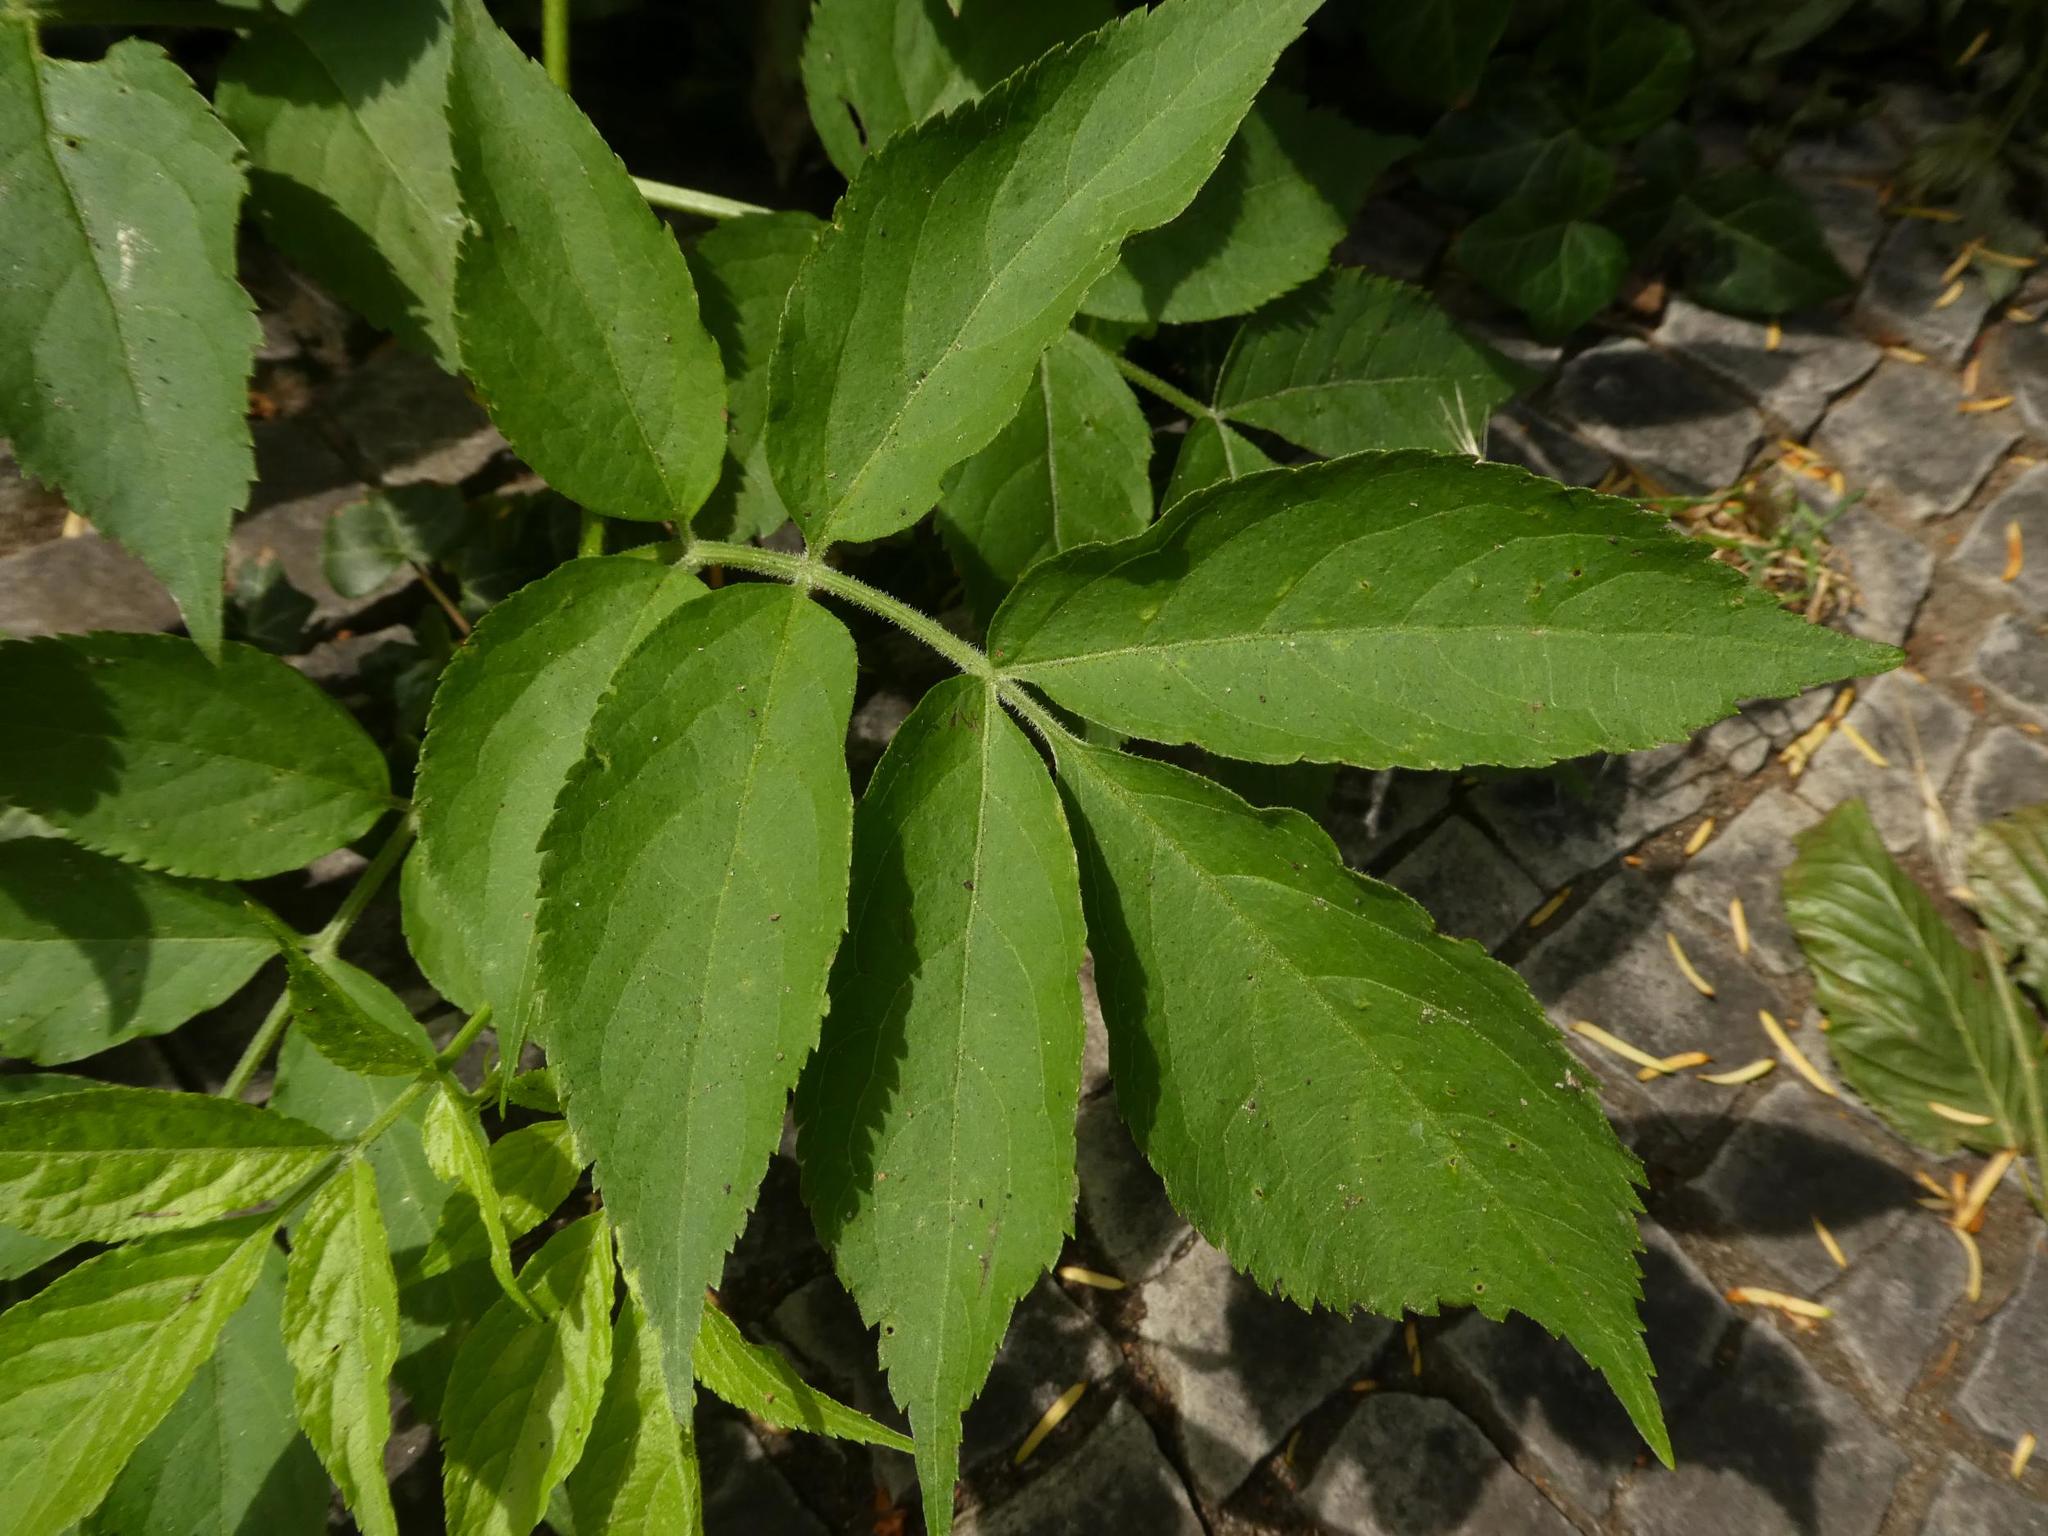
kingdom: Plantae
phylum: Tracheophyta
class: Magnoliopsida
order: Dipsacales
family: Viburnaceae
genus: Sambucus
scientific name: Sambucus nigra
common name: Elder
